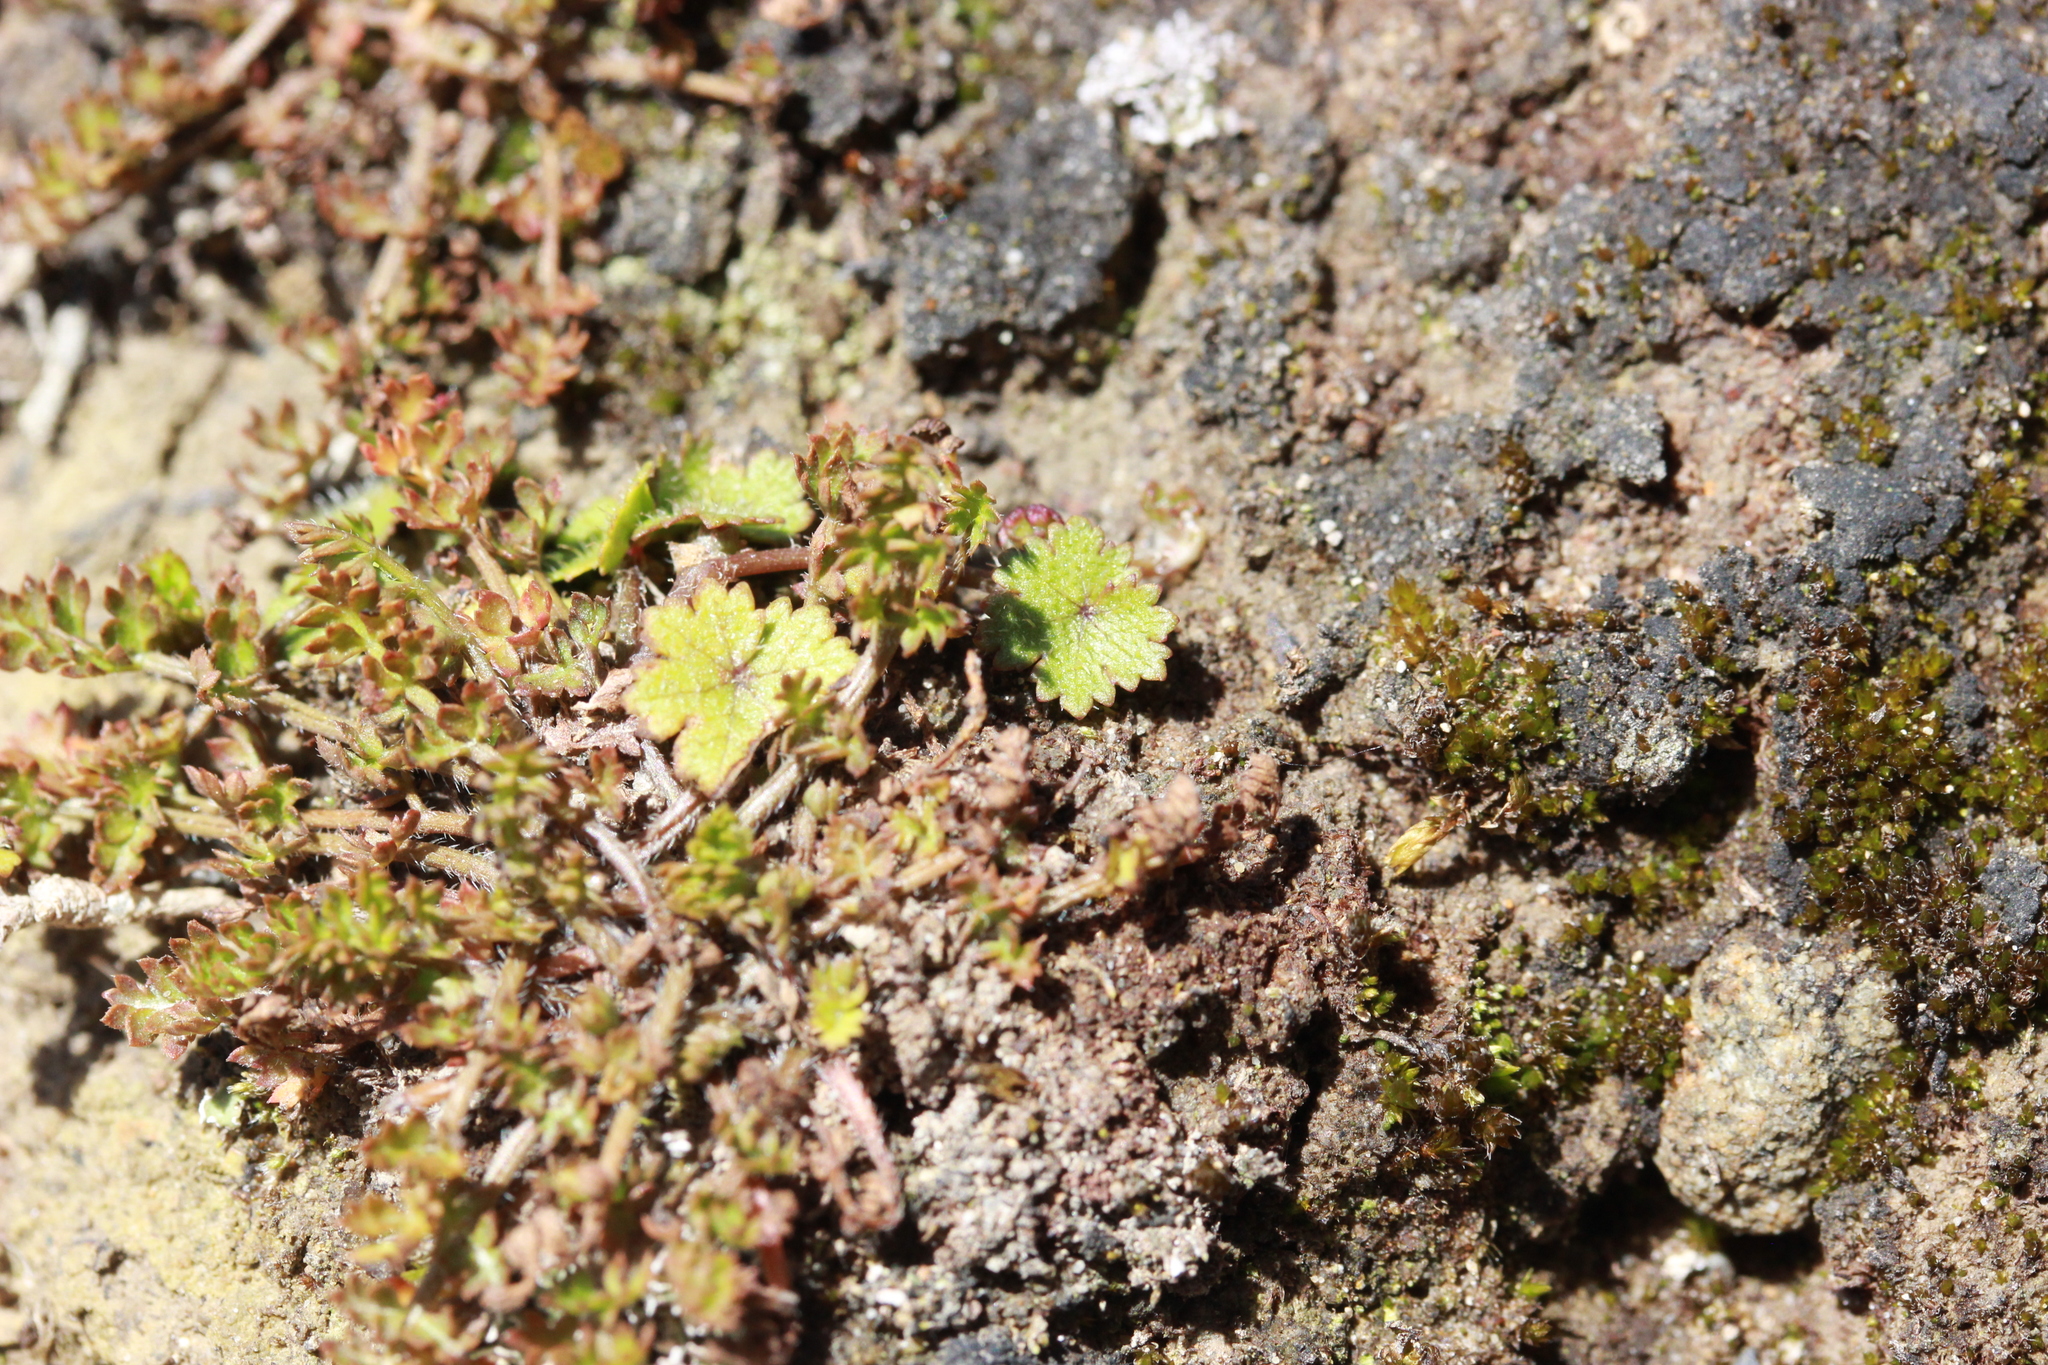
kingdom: Plantae
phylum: Tracheophyta
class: Magnoliopsida
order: Apiales
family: Araliaceae
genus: Hydrocotyle
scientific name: Hydrocotyle moschata
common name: Hairy pennywort
